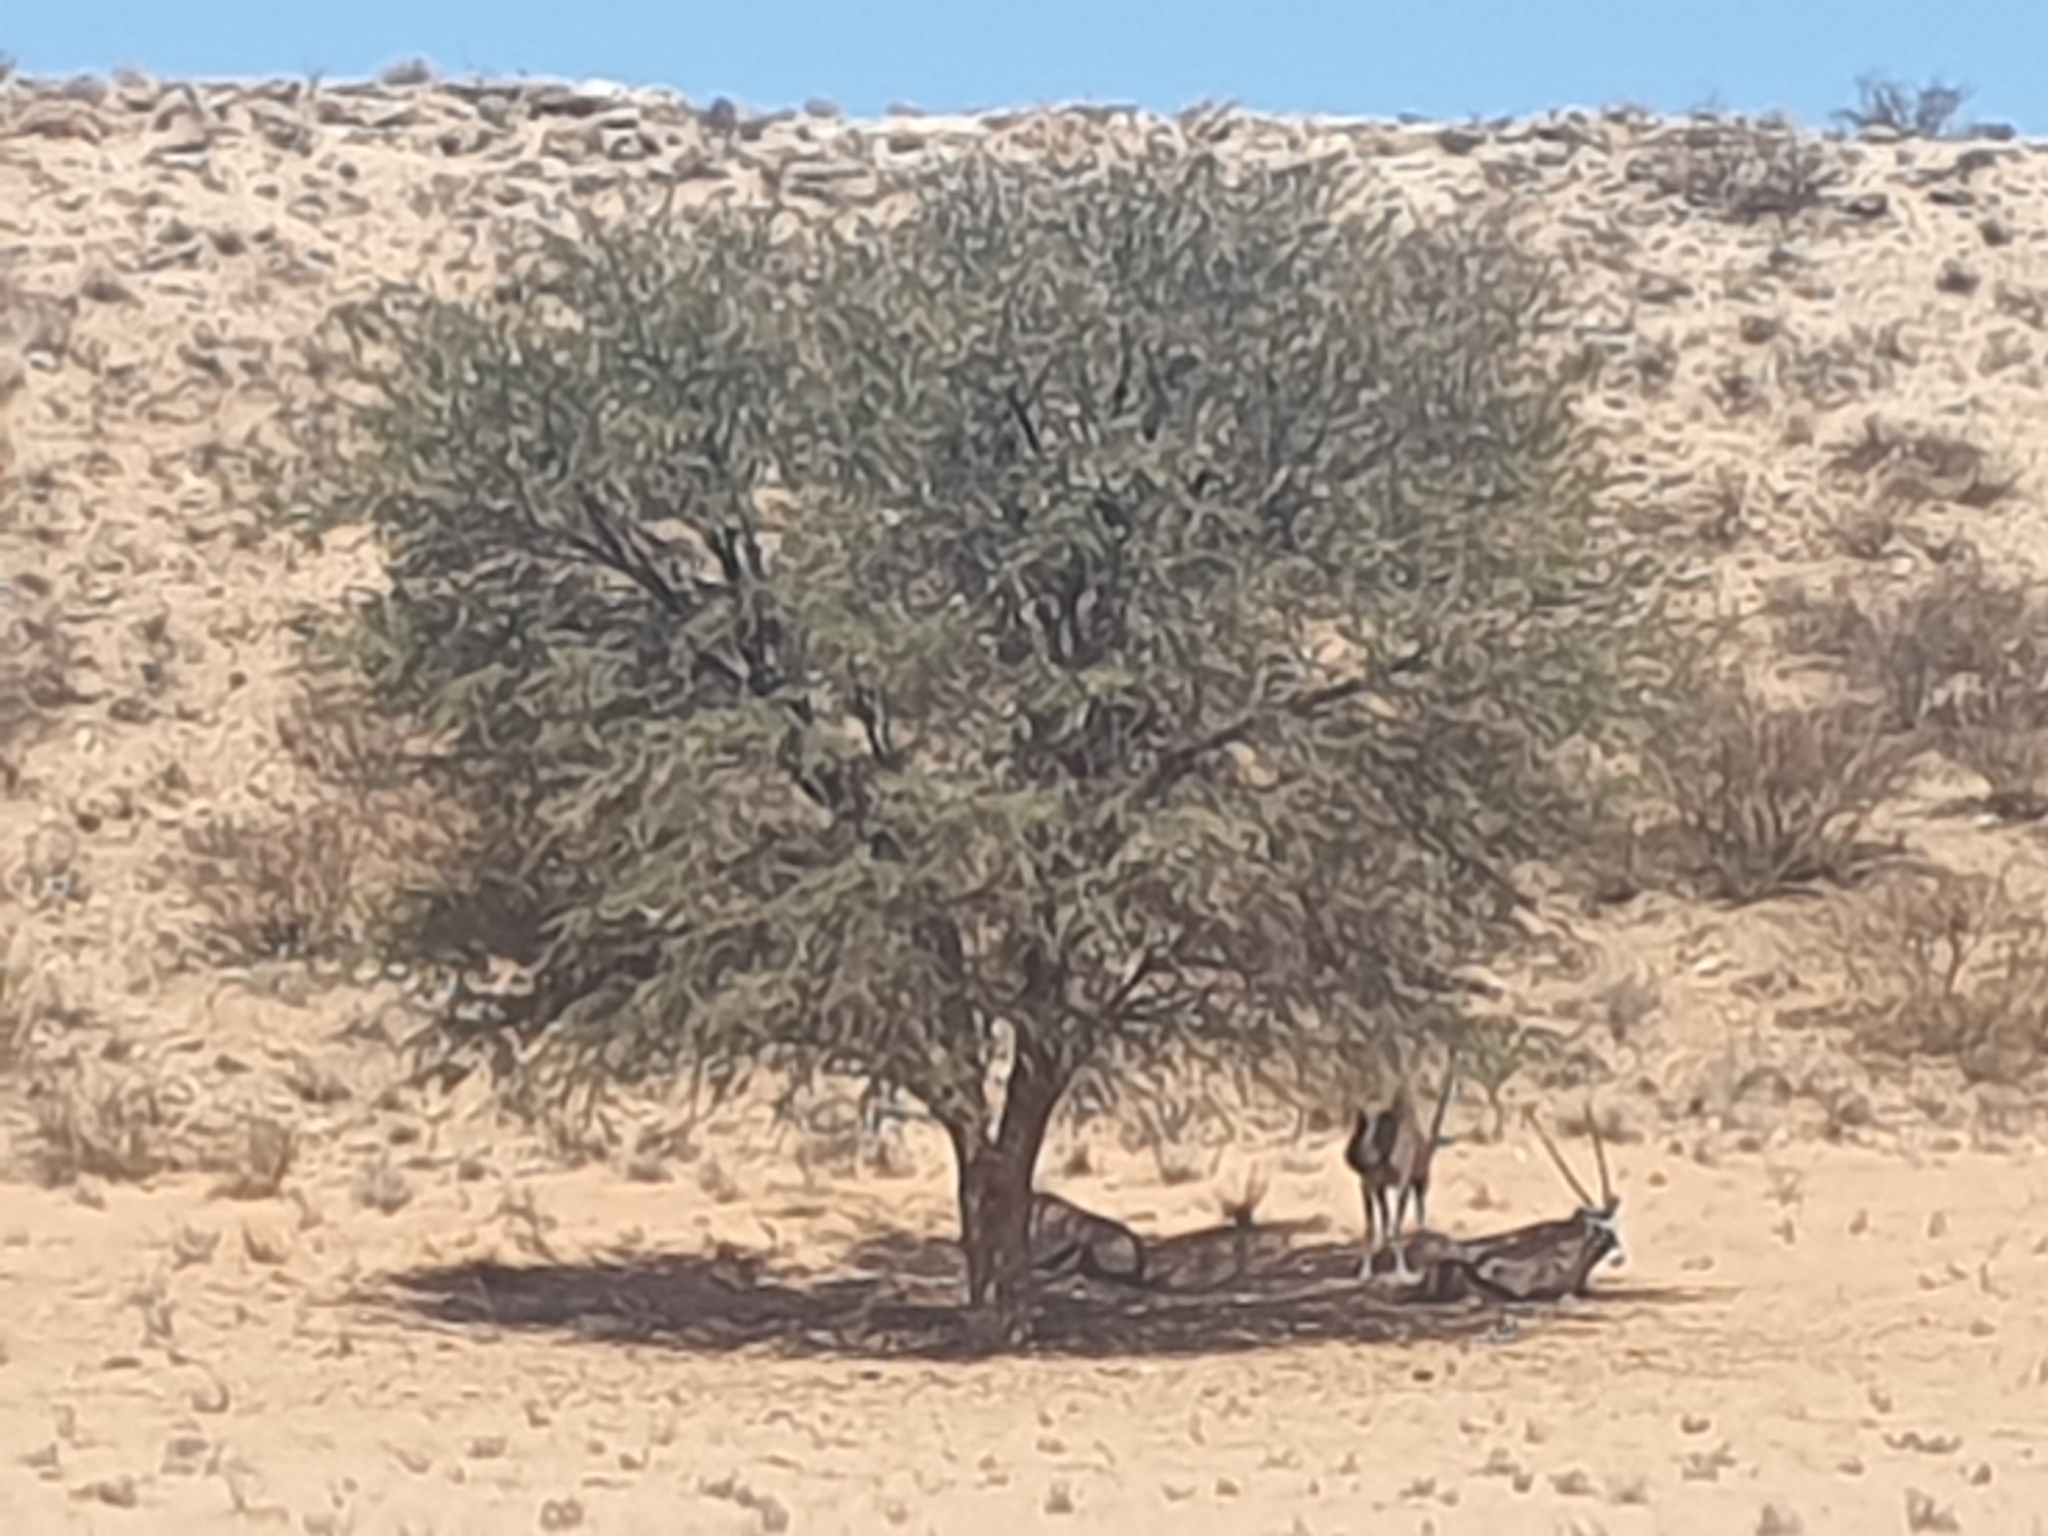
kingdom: Plantae
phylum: Tracheophyta
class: Magnoliopsida
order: Fabales
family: Fabaceae
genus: Vachellia
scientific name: Vachellia erioloba
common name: Camel thorn
